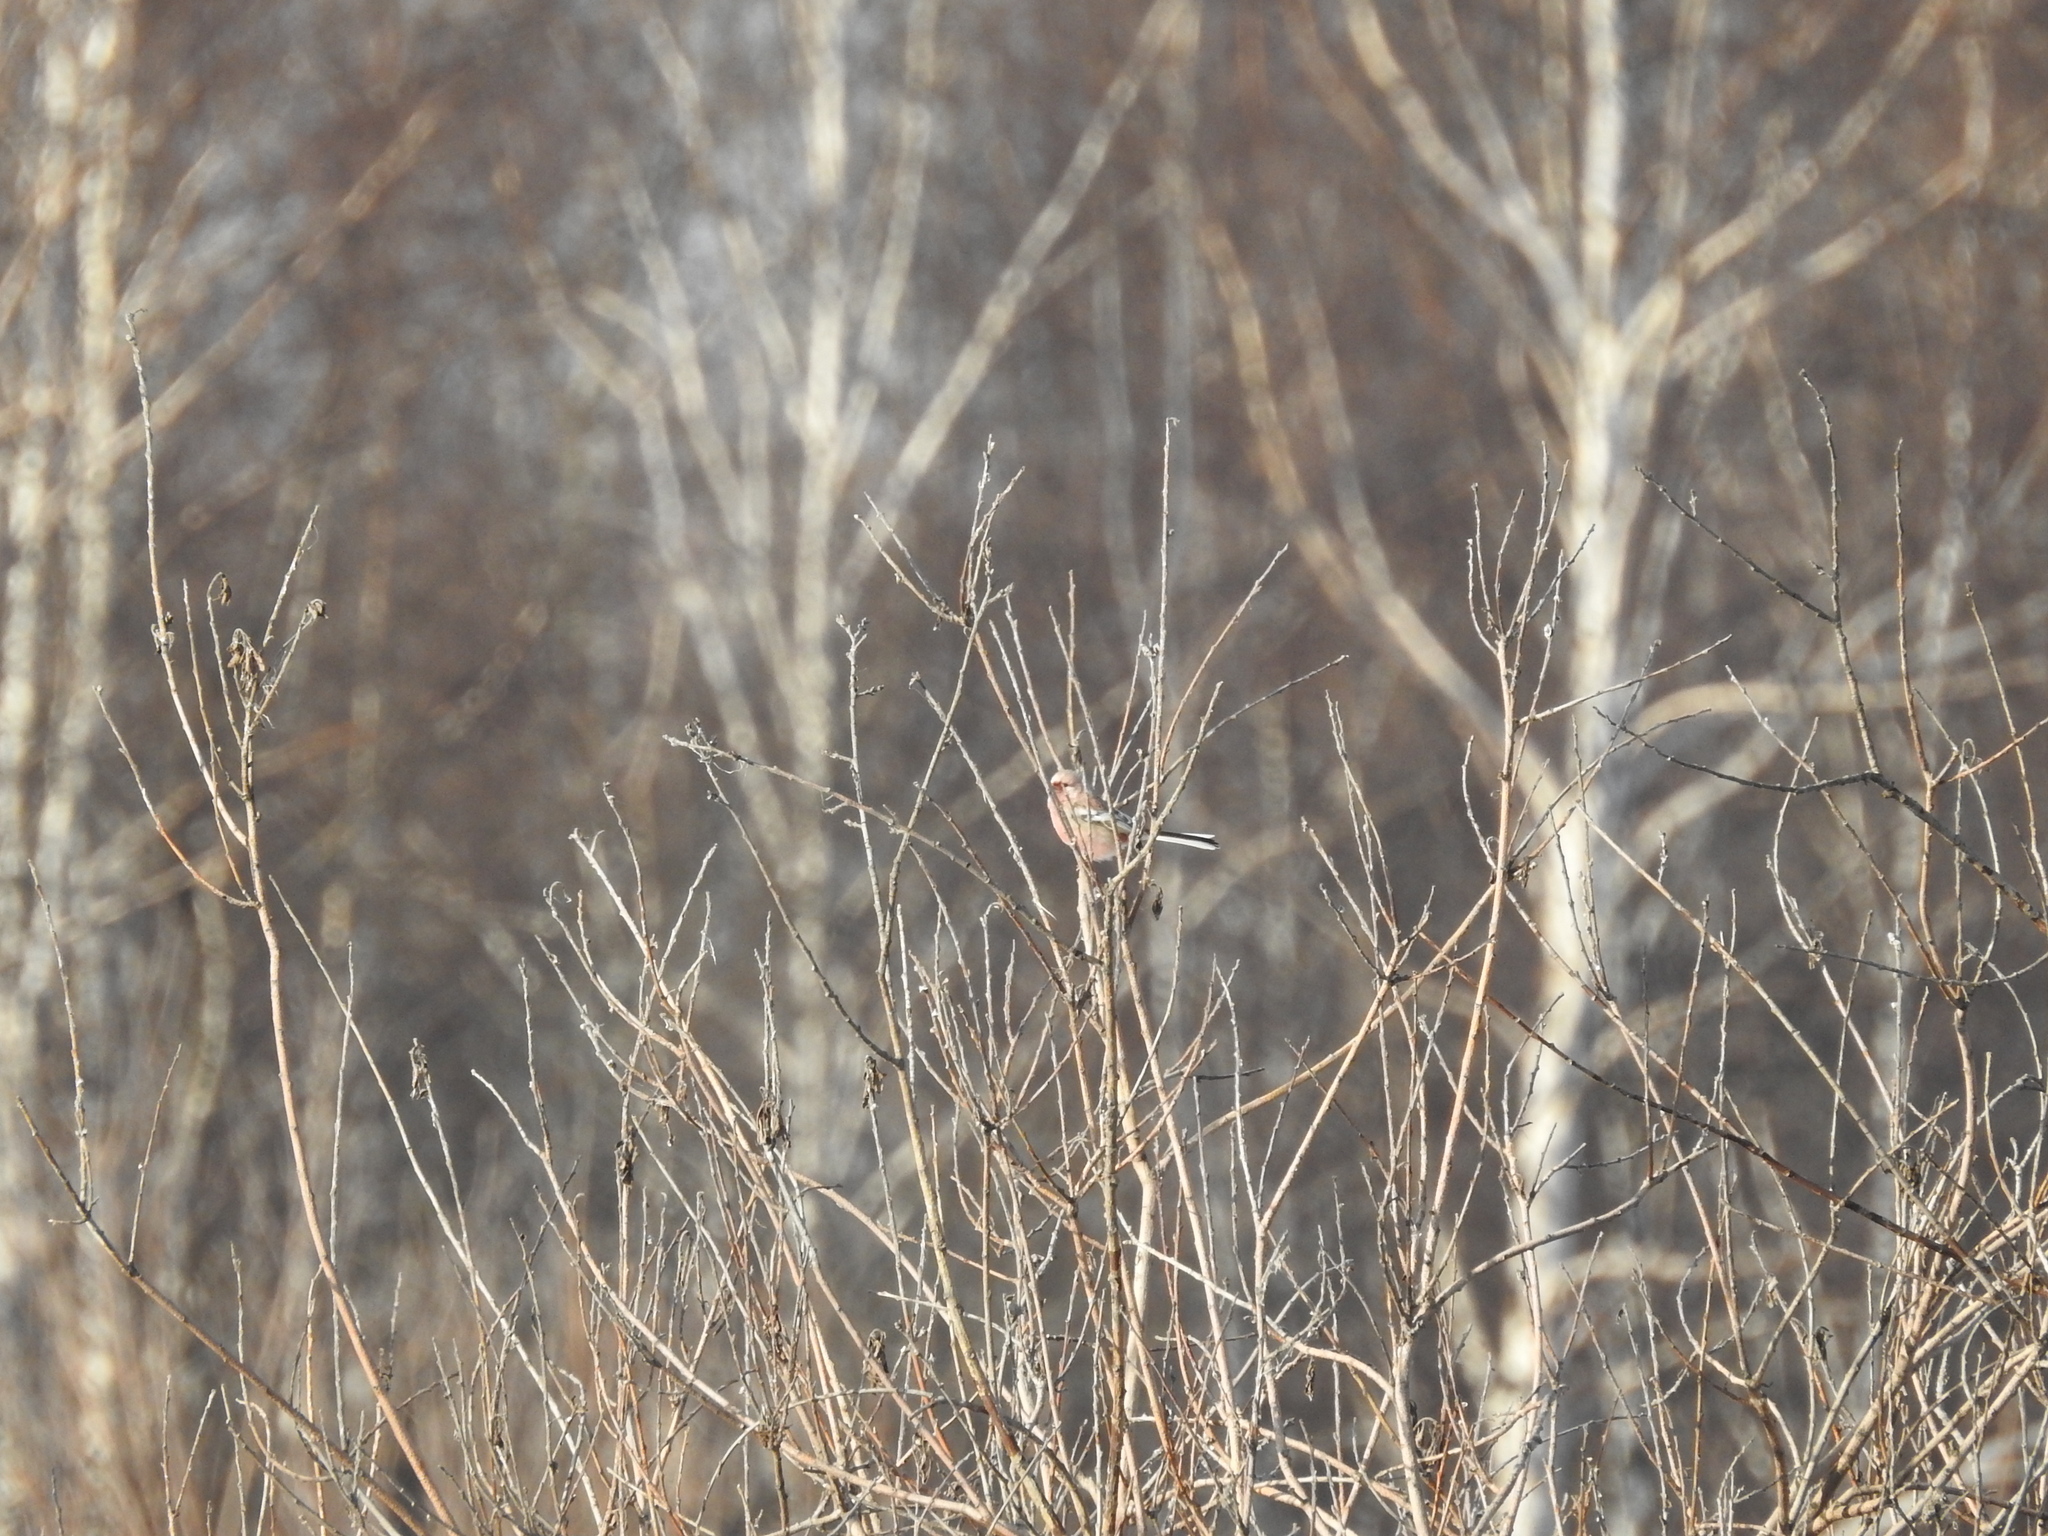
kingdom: Animalia
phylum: Chordata
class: Aves
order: Passeriformes
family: Fringillidae
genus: Carpodacus
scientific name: Carpodacus sibiricus
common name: Long-tailed rosefinch
